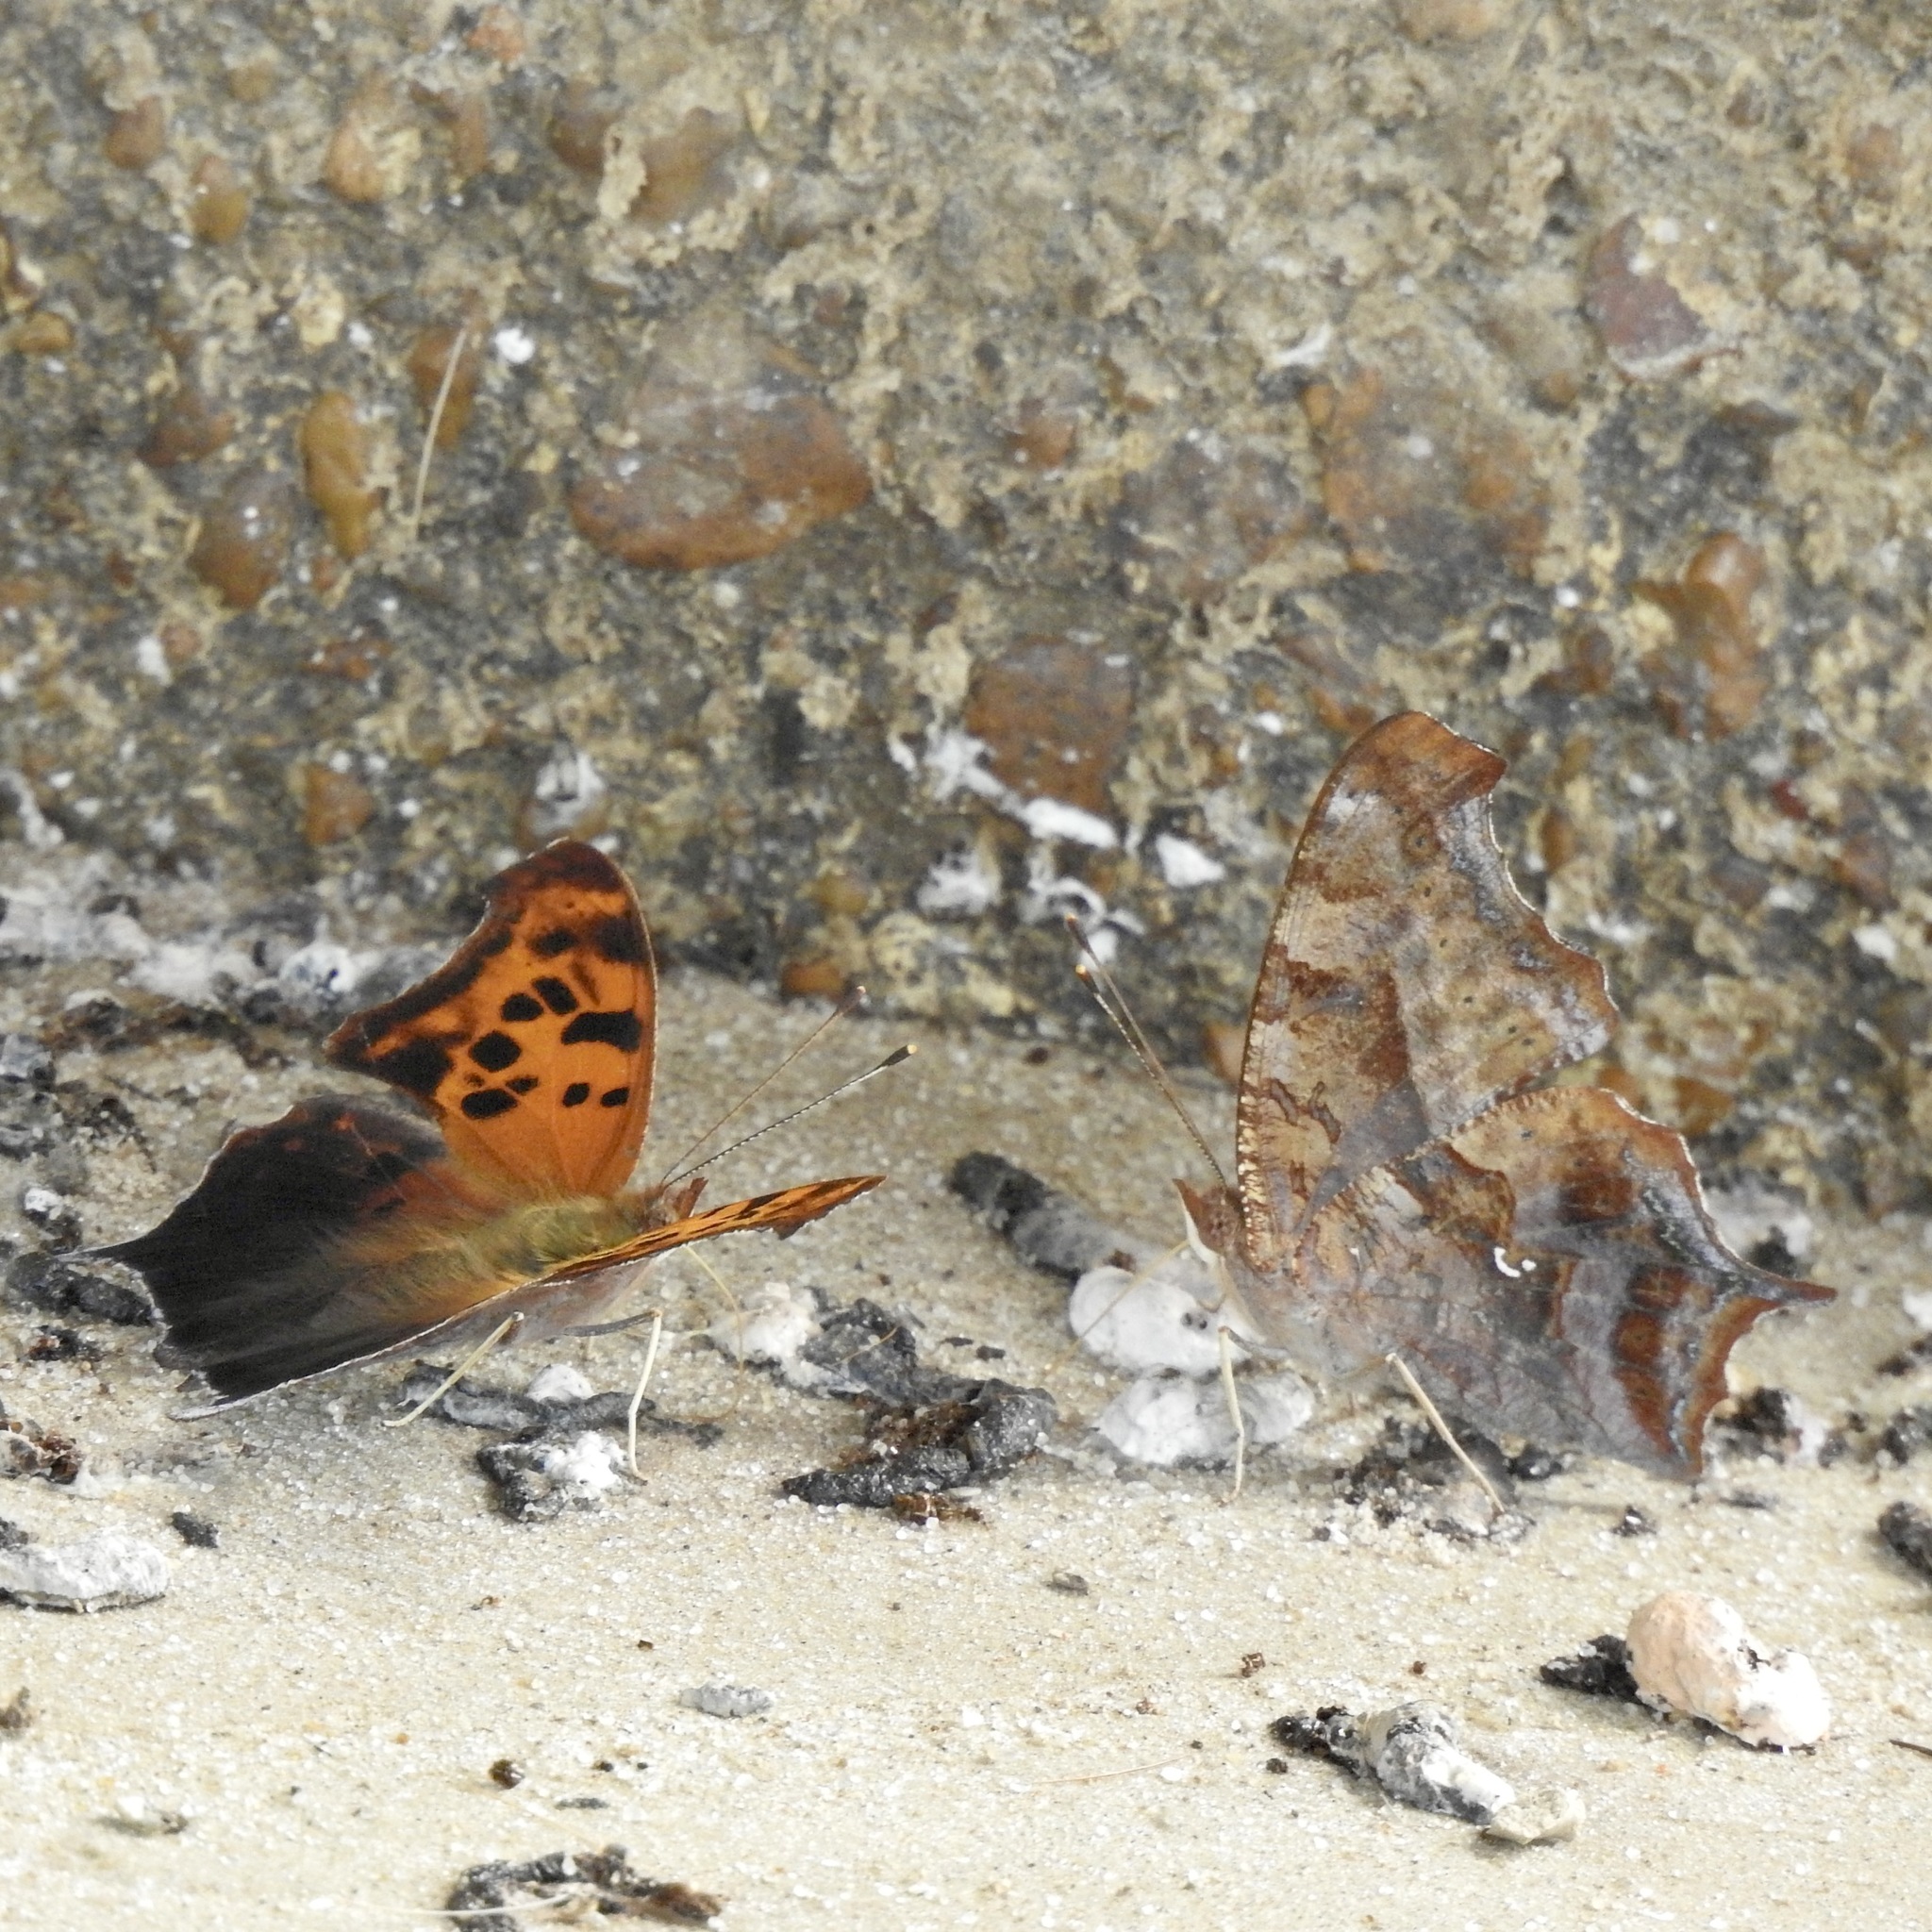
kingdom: Animalia
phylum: Arthropoda
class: Insecta
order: Lepidoptera
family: Nymphalidae
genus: Polygonia
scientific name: Polygonia interrogationis
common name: Question mark
